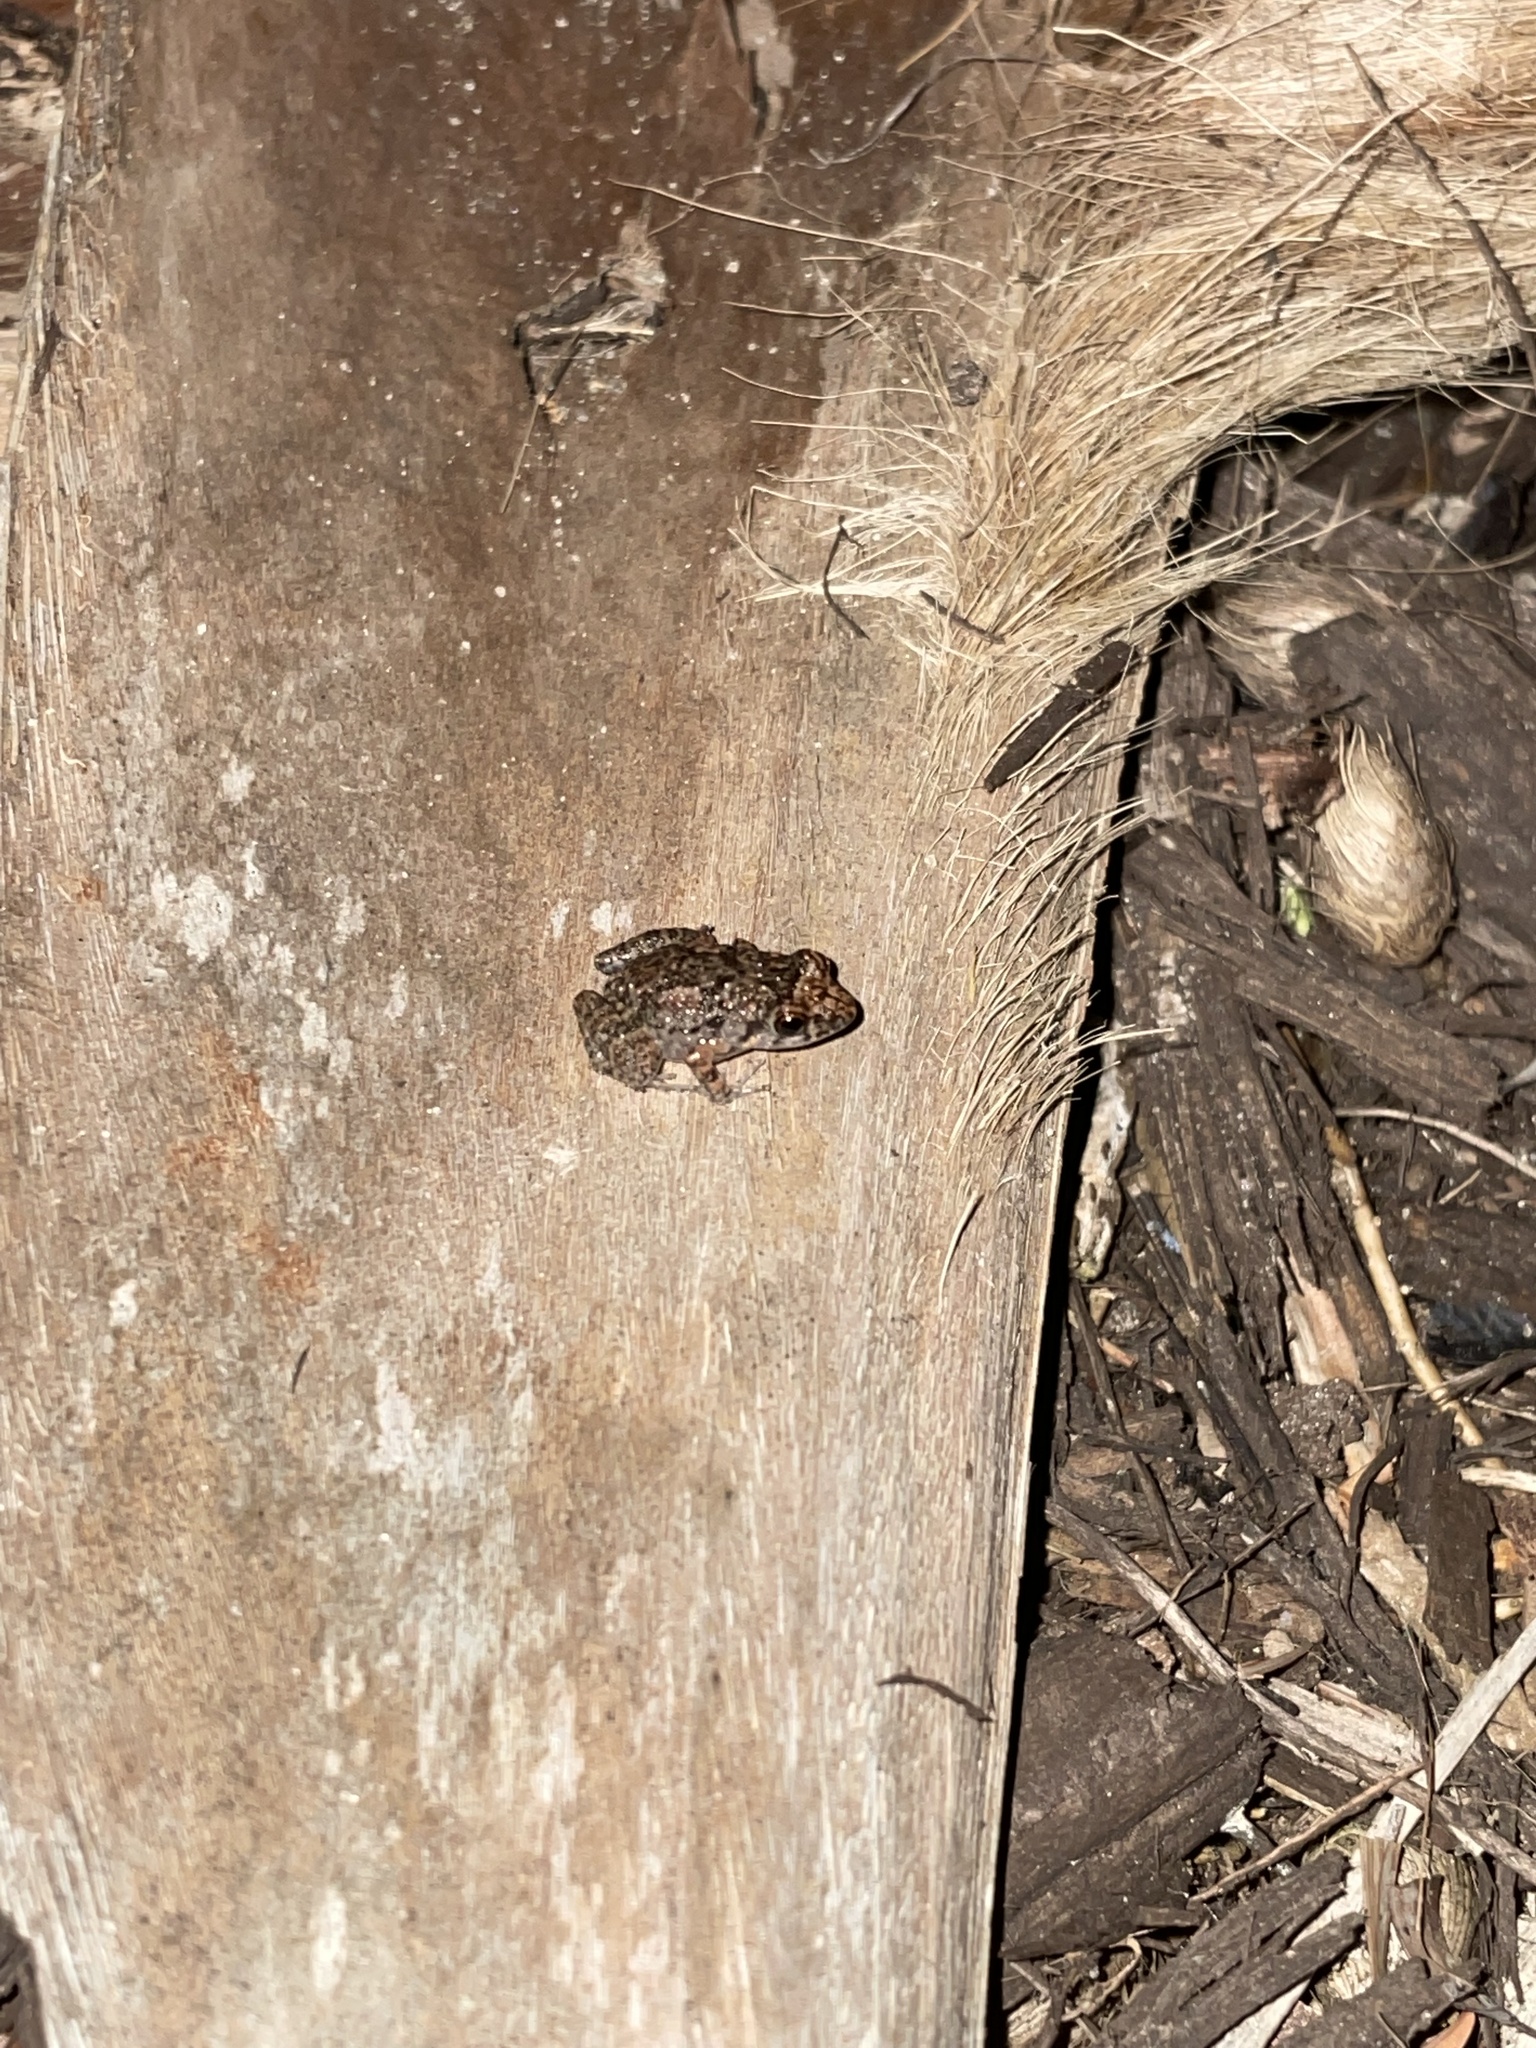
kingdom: Animalia
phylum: Chordata
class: Amphibia
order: Anura
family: Eleutherodactylidae
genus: Eleutherodactylus
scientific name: Eleutherodactylus planirostris
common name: Greenhouse frog
